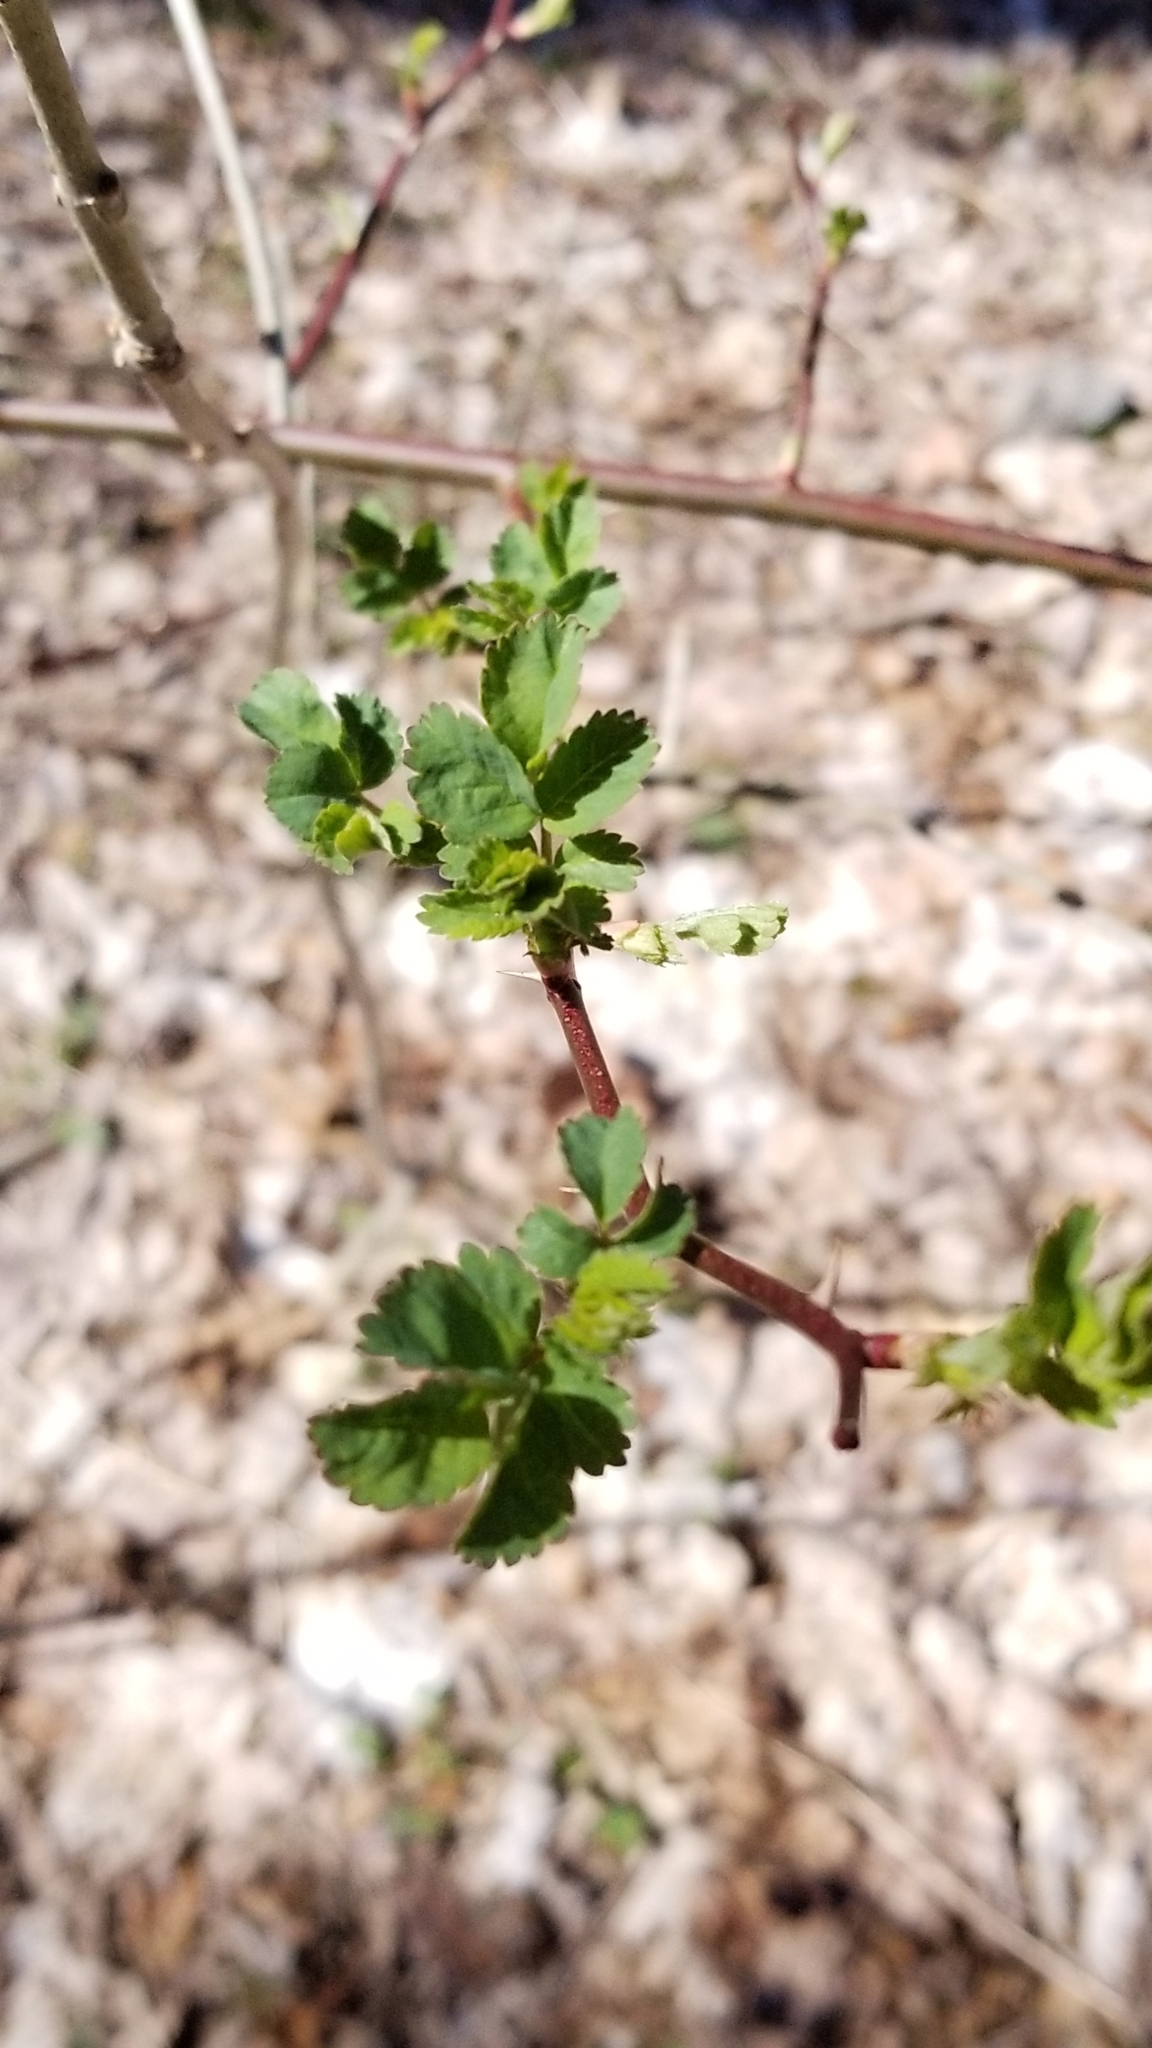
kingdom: Plantae
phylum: Tracheophyta
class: Magnoliopsida
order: Rosales
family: Rosaceae
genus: Rosa
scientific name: Rosa multiflora
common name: Multiflora rose
